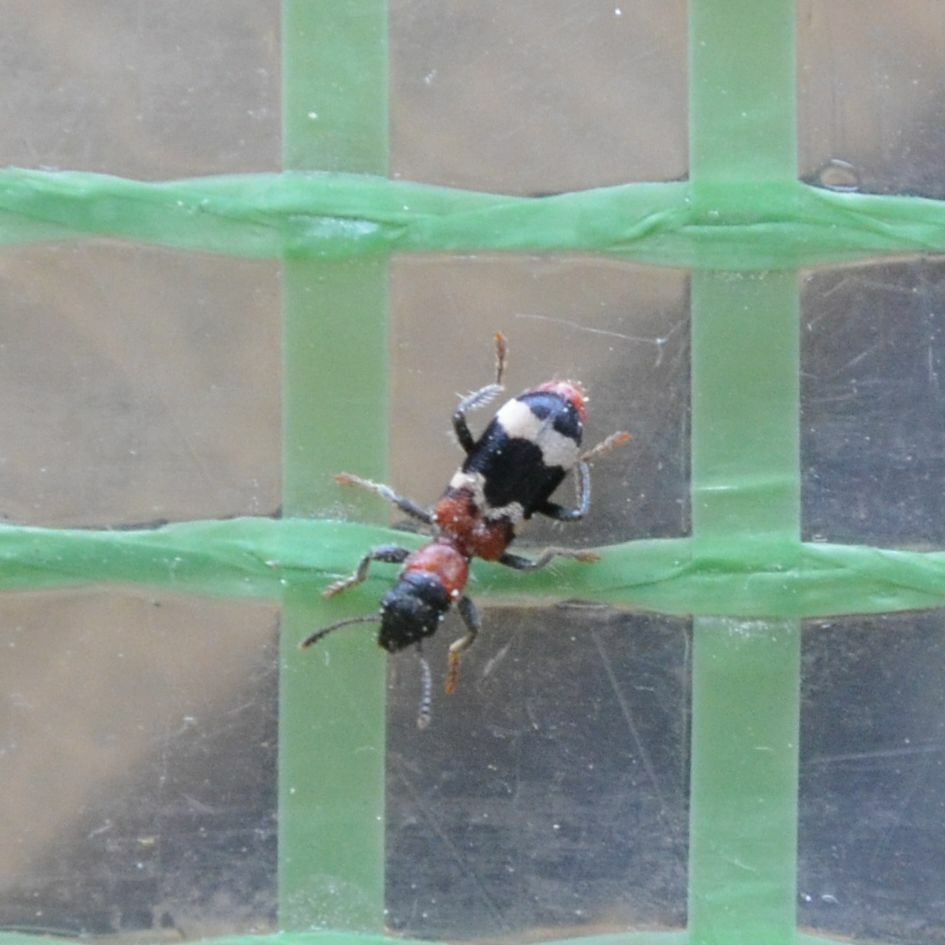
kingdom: Animalia
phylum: Arthropoda
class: Insecta
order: Coleoptera
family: Cleridae
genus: Thanasimus
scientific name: Thanasimus formicarius
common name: Ant beetle
